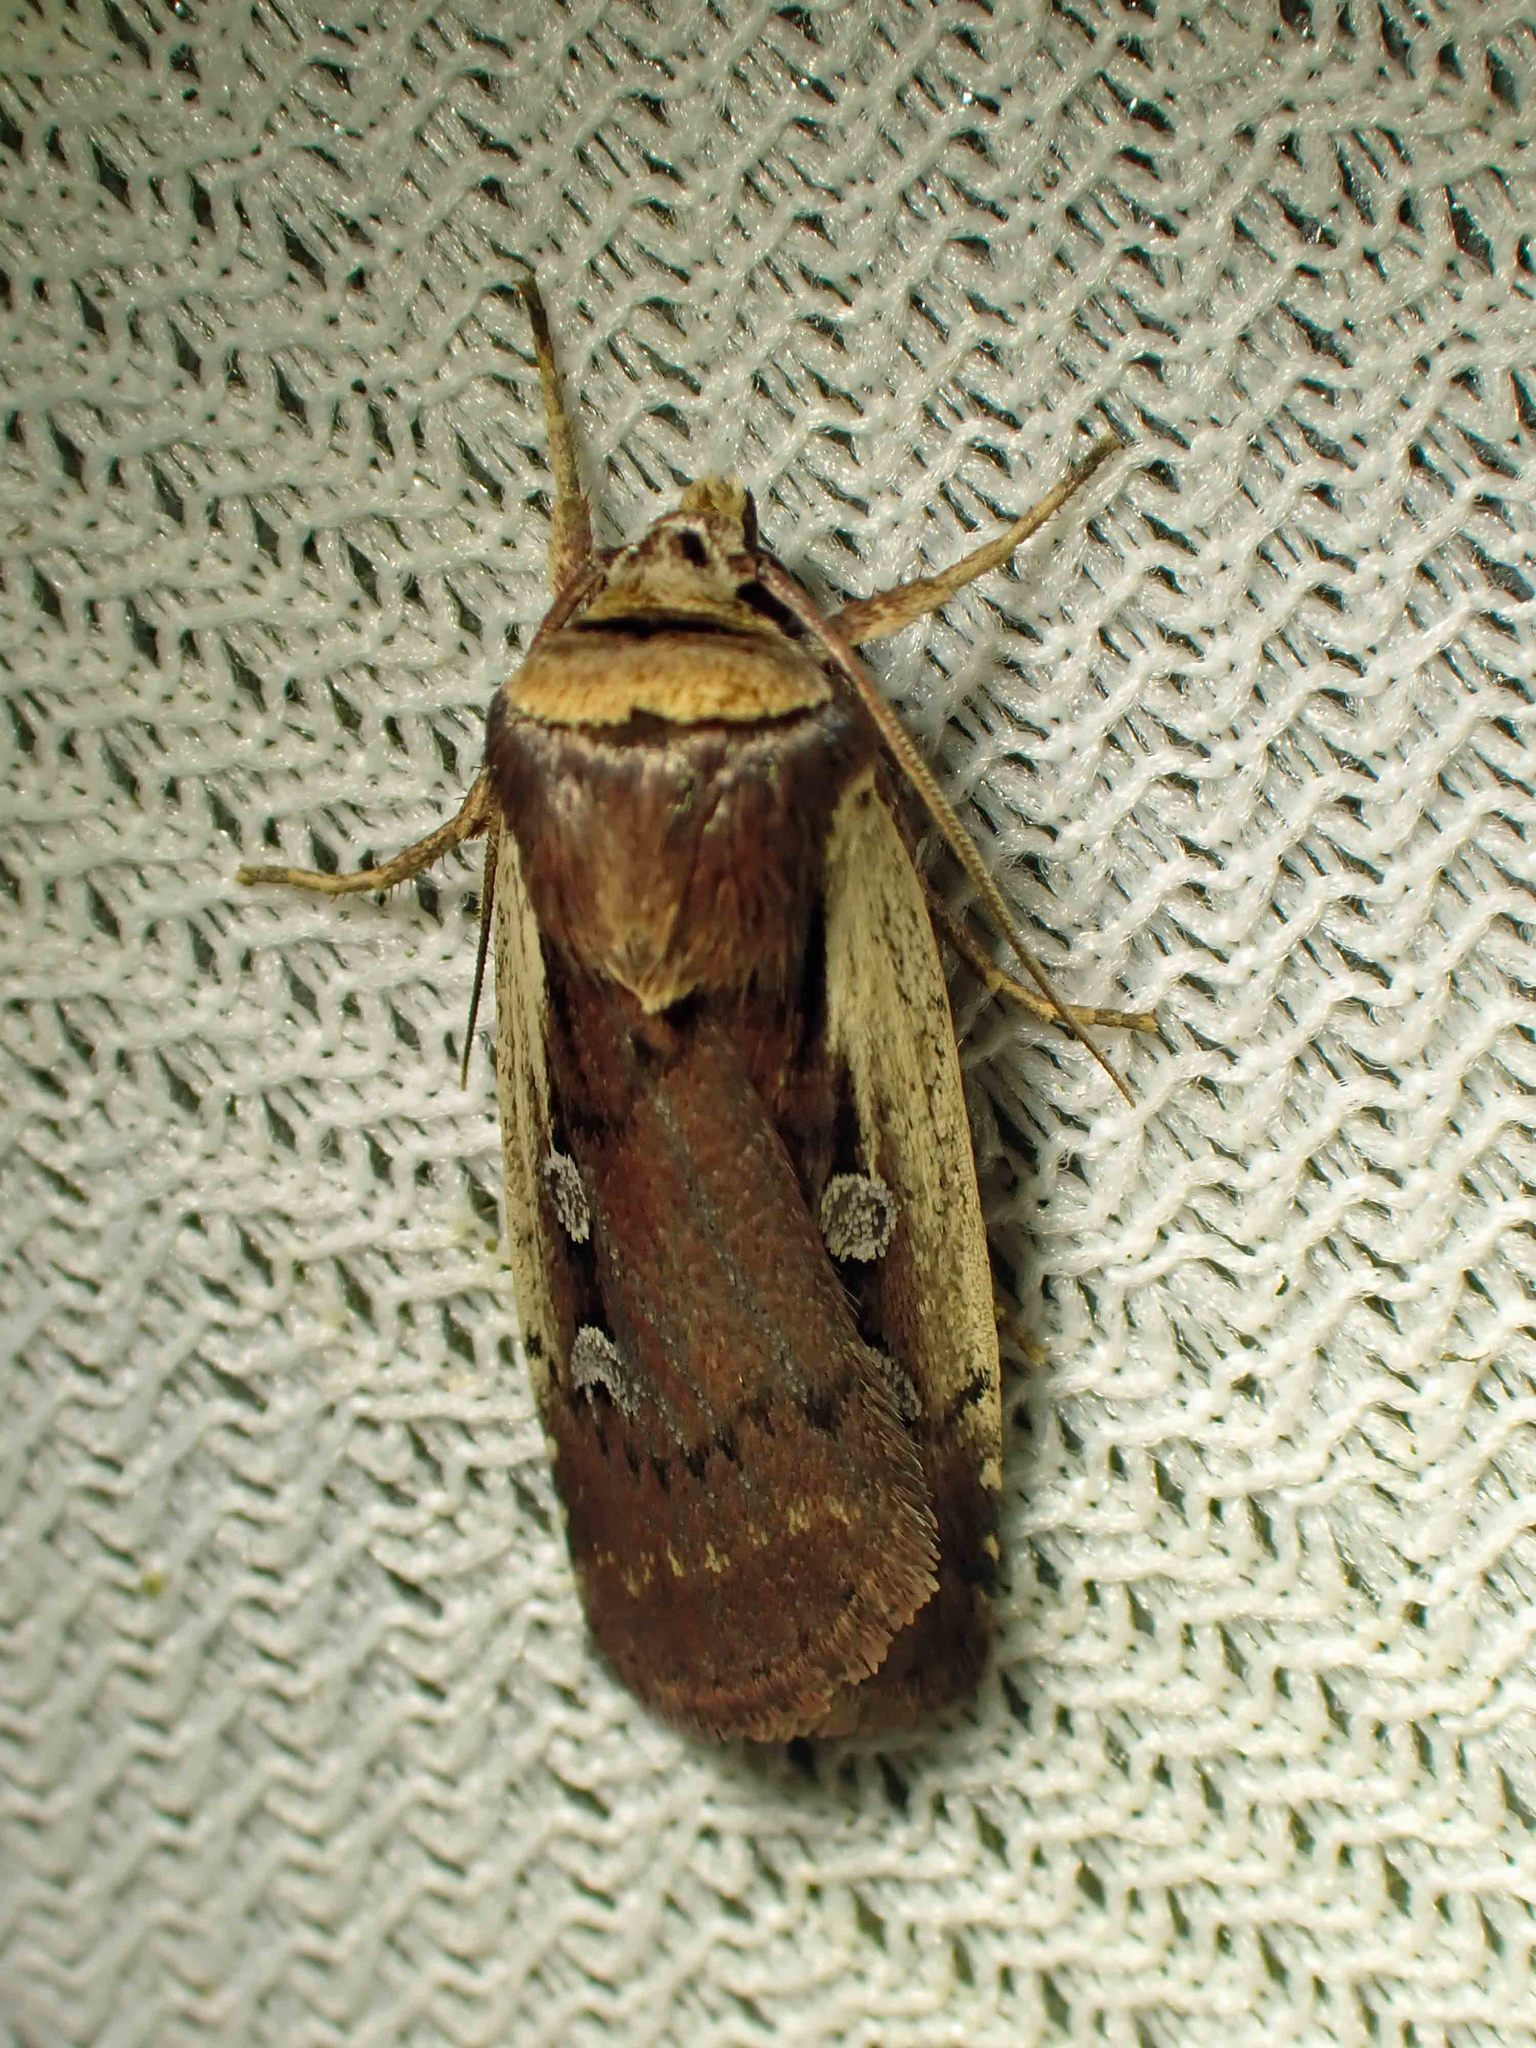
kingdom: Animalia
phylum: Arthropoda
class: Insecta
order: Lepidoptera
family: Noctuidae
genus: Ochropleura
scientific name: Ochropleura implecta
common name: Flame-shouldered dart
